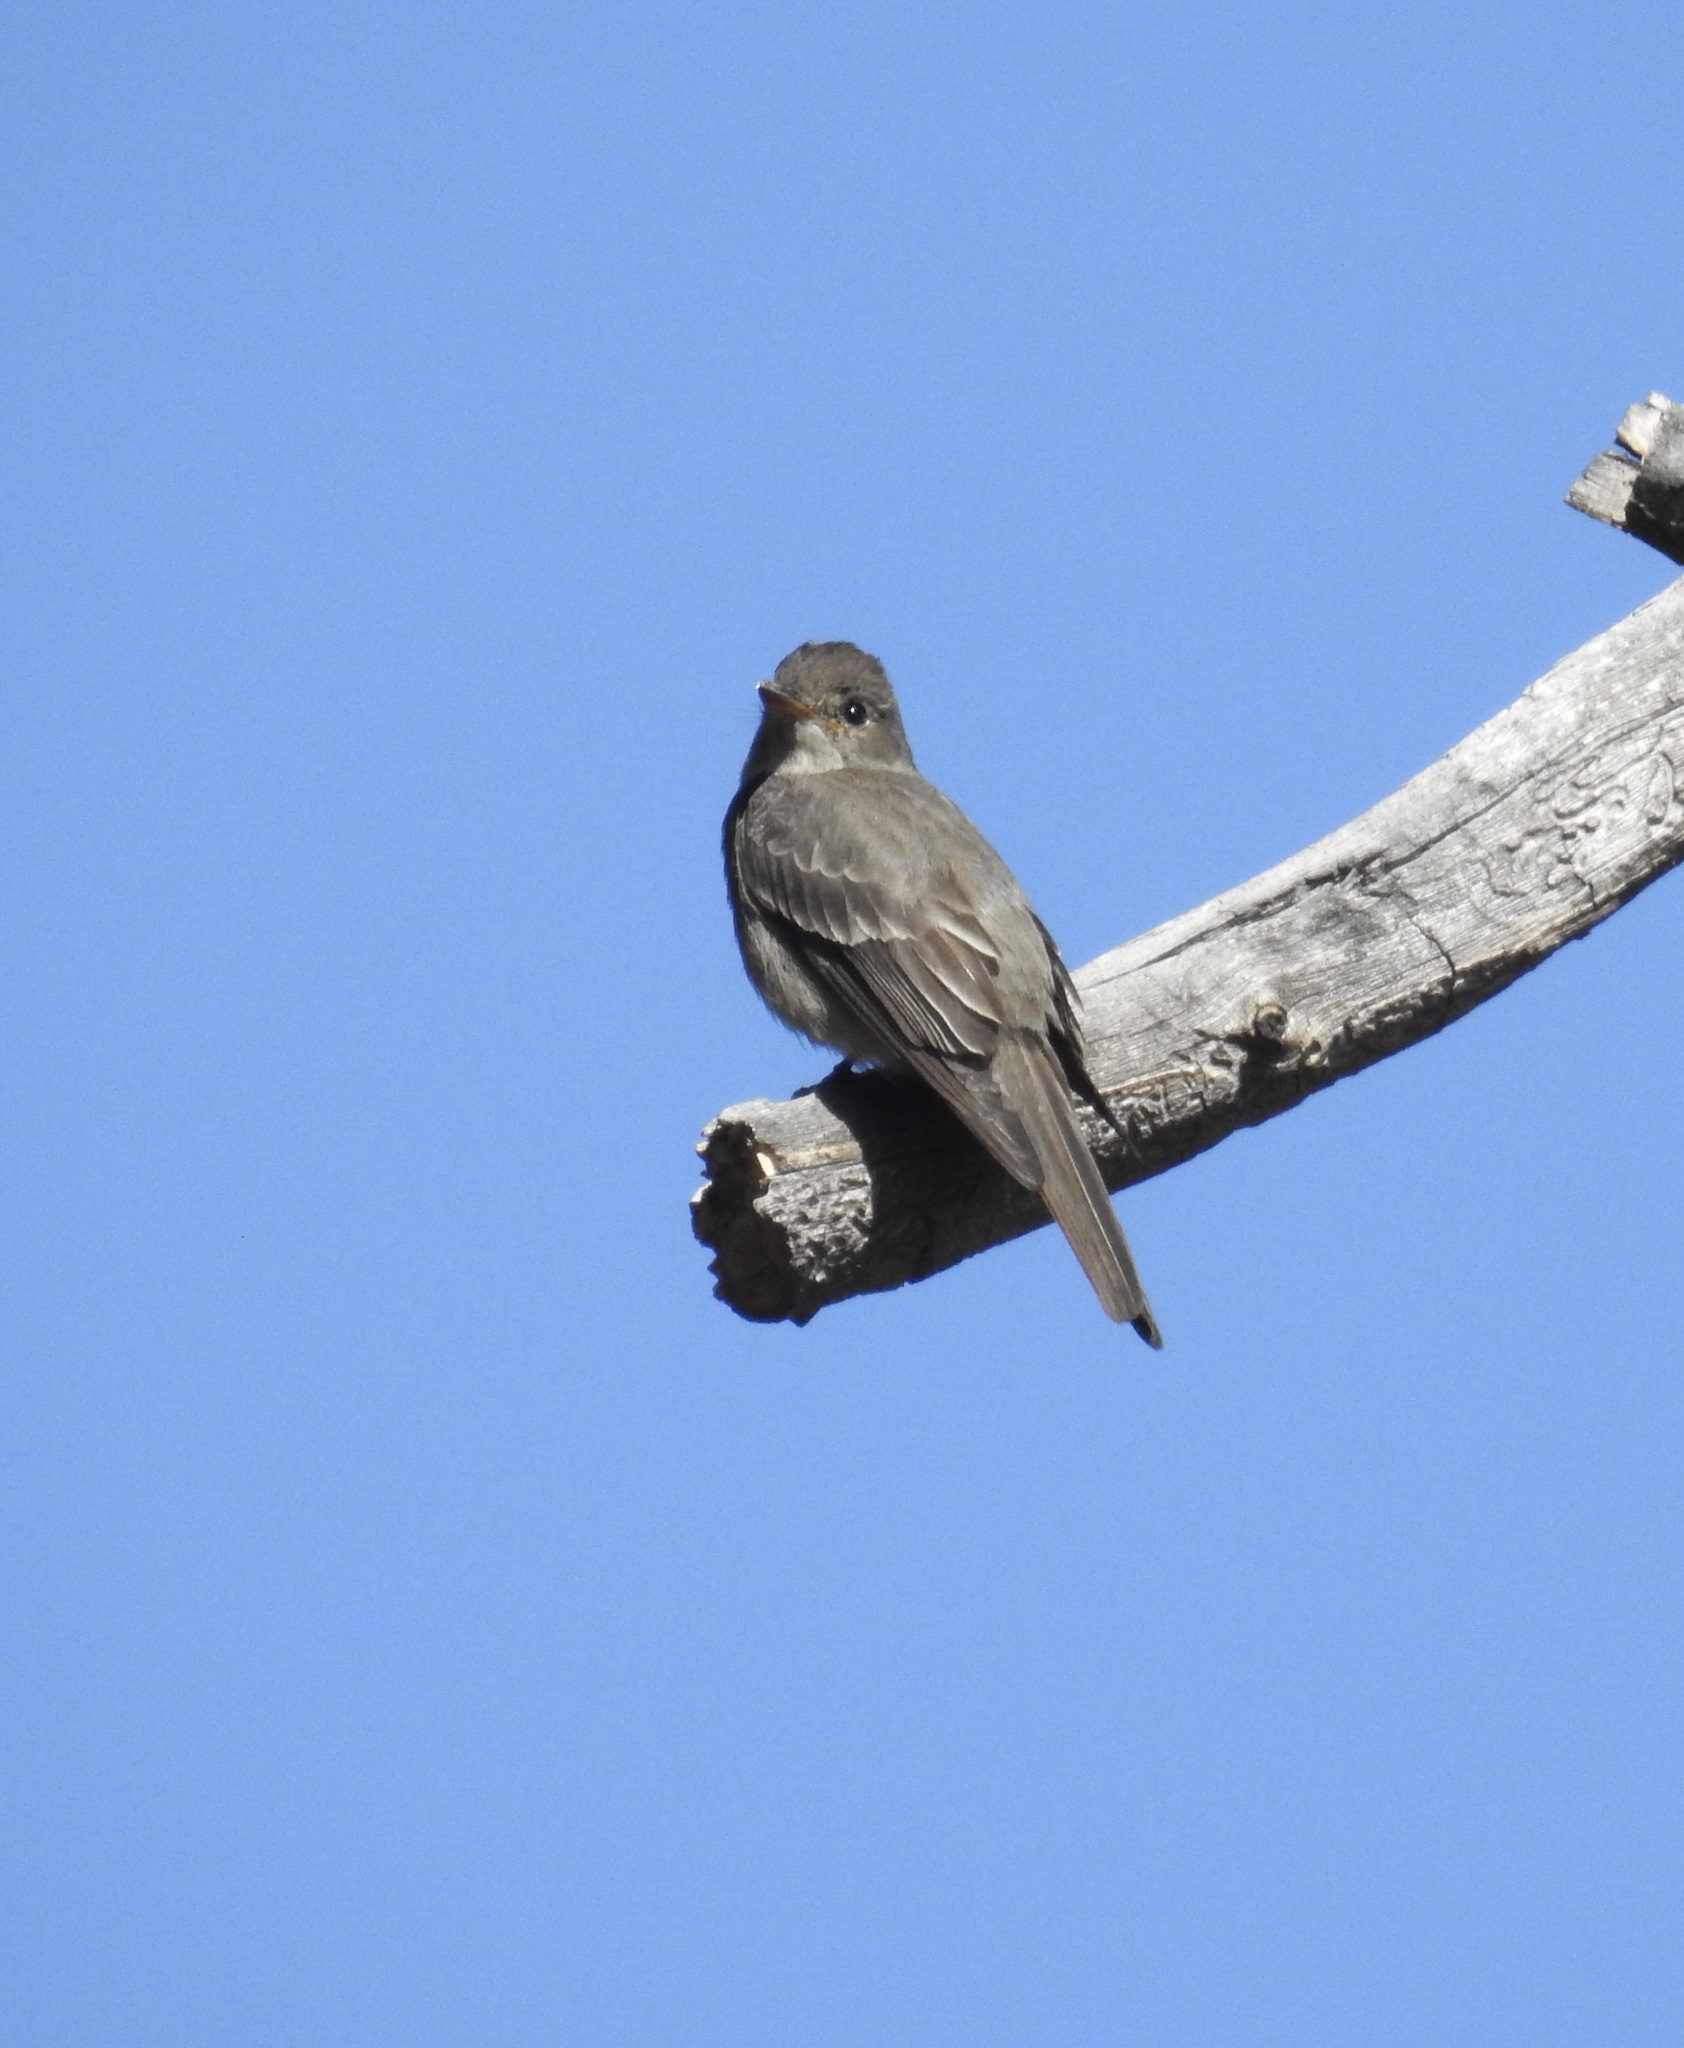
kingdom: Animalia
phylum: Chordata
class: Aves
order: Passeriformes
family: Tyrannidae
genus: Contopus
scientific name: Contopus sordidulus
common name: Western wood-pewee
